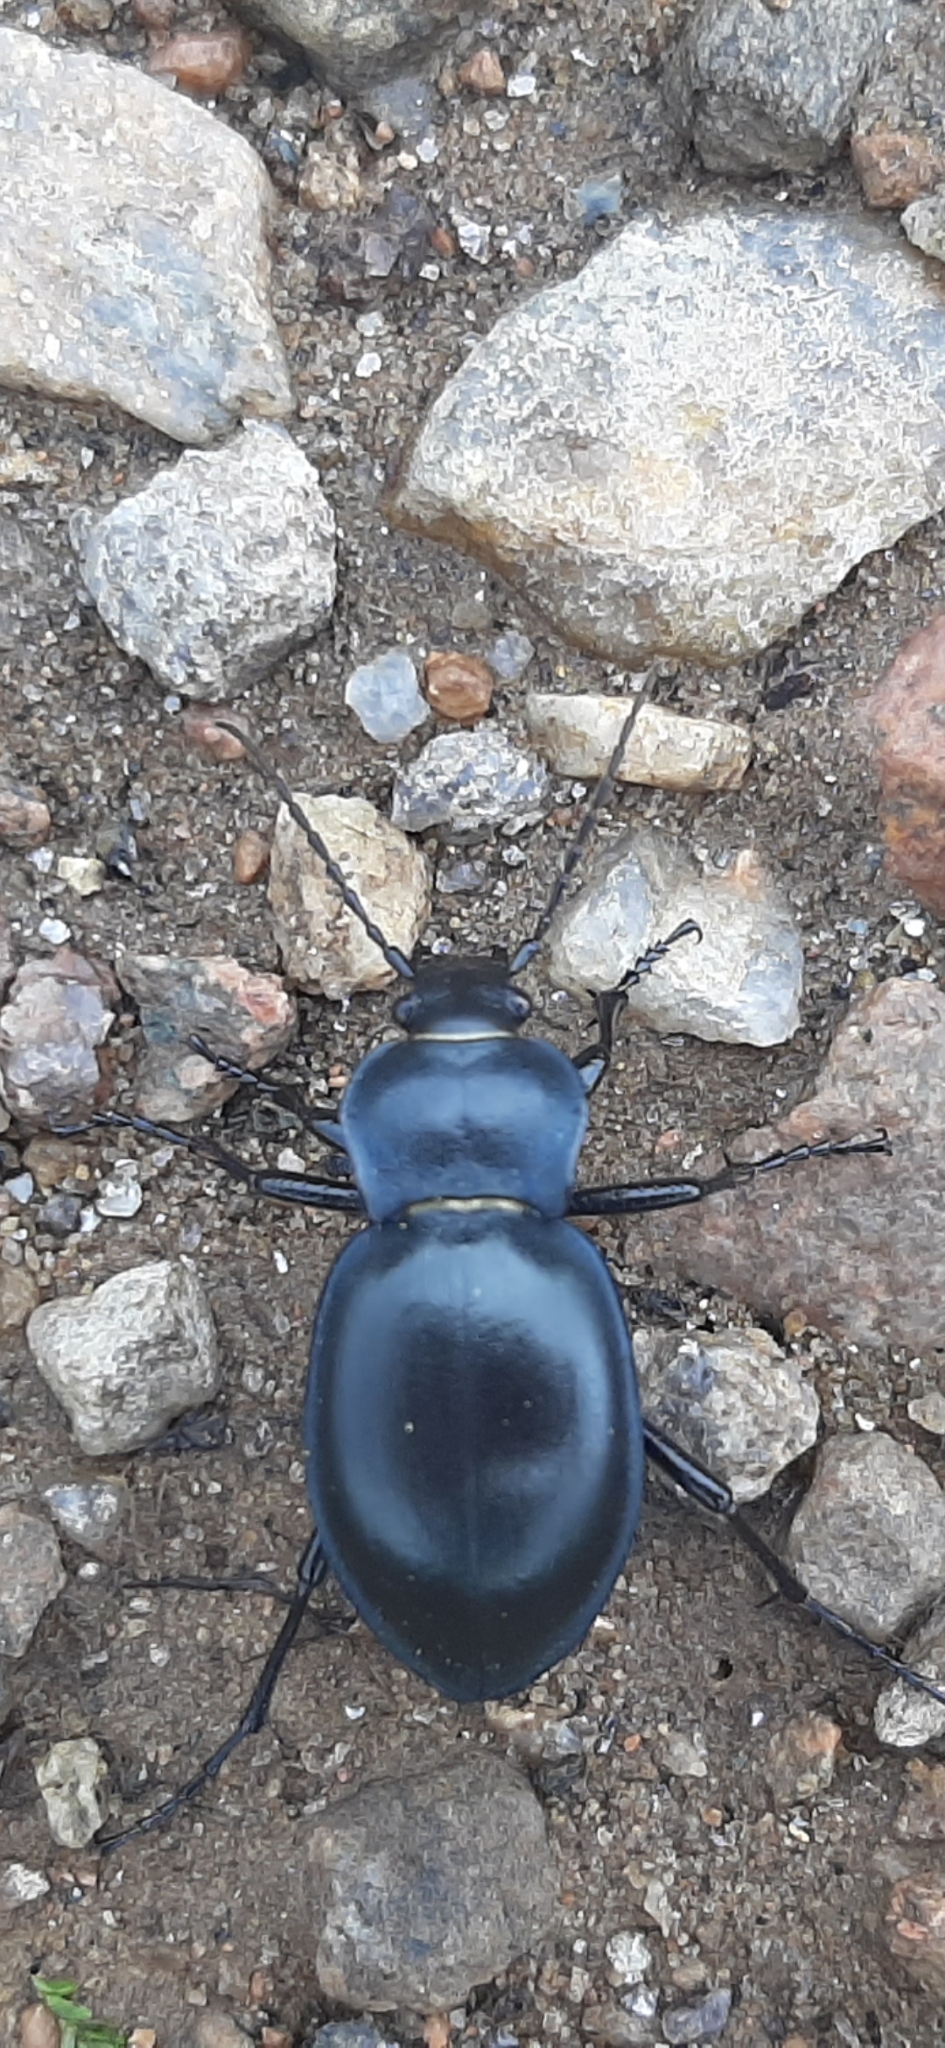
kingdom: Animalia
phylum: Arthropoda
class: Insecta
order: Coleoptera
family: Carabidae
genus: Carabus
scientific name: Carabus glabratus
